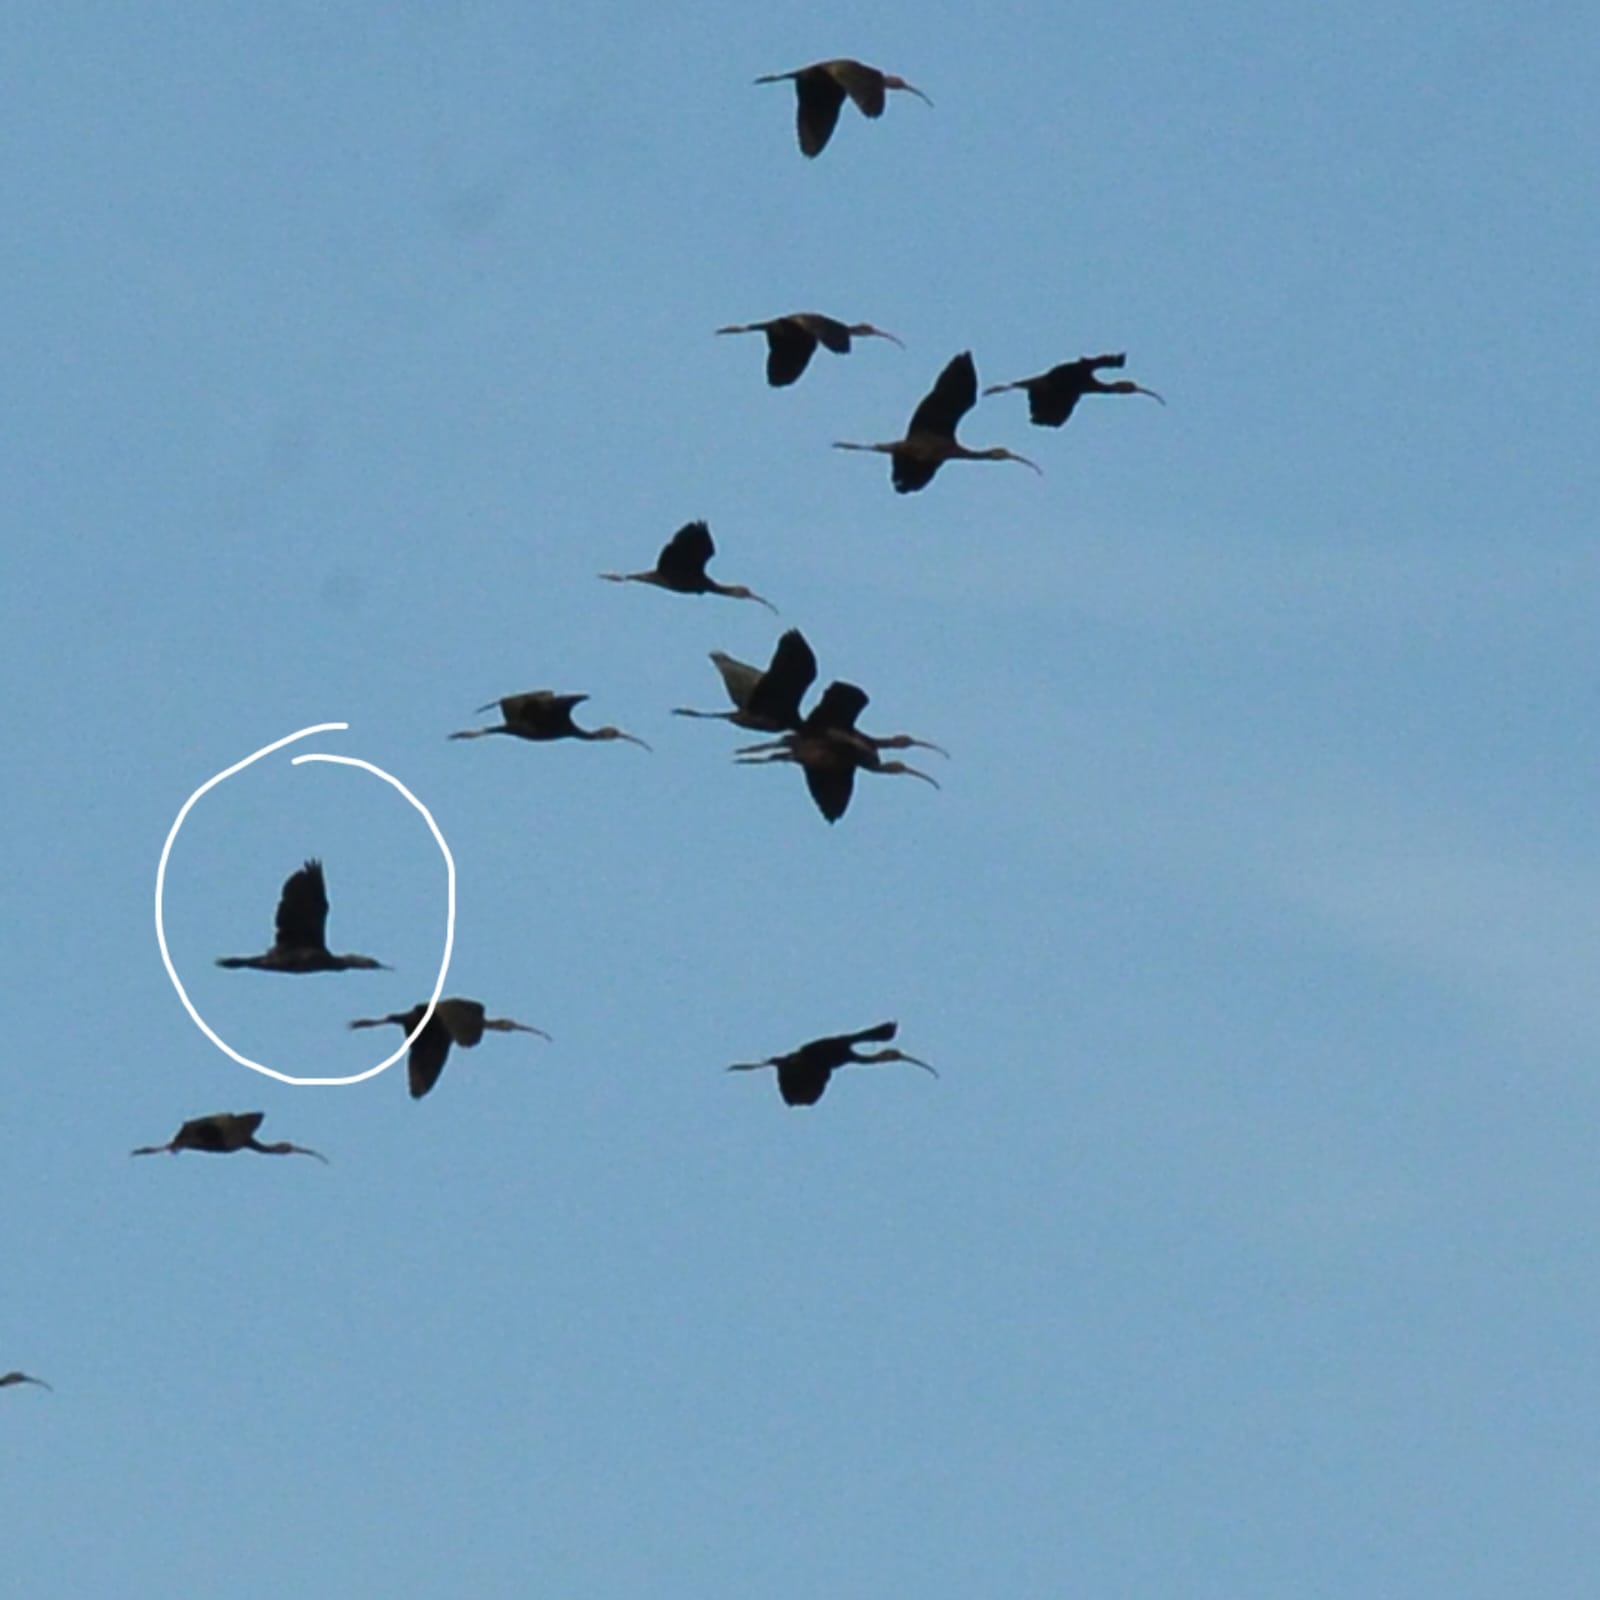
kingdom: Animalia
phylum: Chordata
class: Aves
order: Suliformes
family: Phalacrocoracidae
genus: Phalacrocorax
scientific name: Phalacrocorax fuscicollis
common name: Indian cormorant
